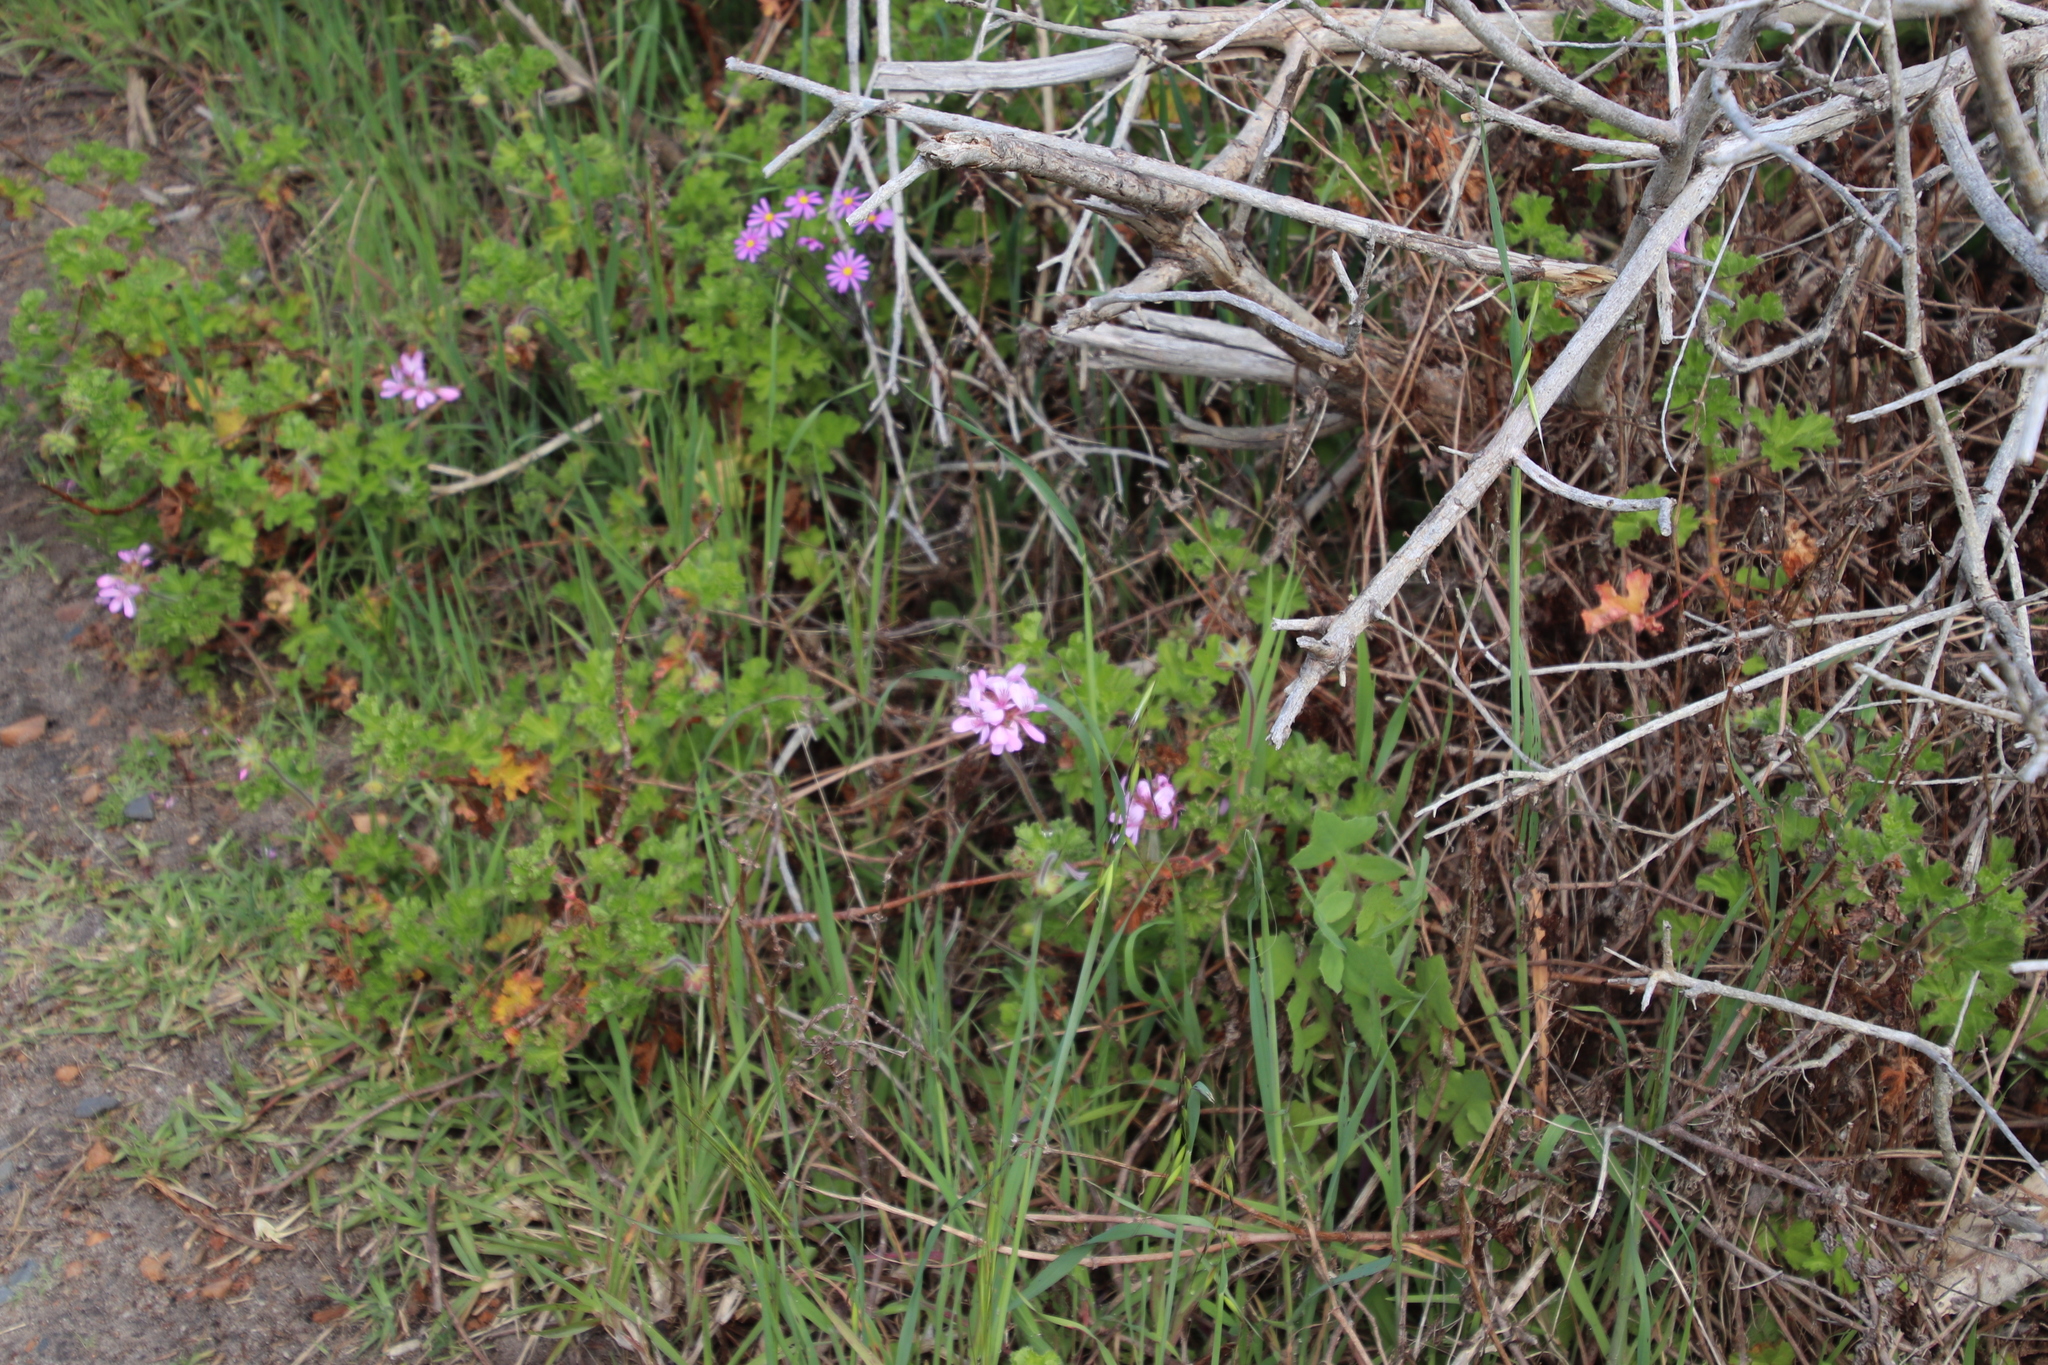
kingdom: Plantae
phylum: Tracheophyta
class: Magnoliopsida
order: Geraniales
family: Geraniaceae
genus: Pelargonium
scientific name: Pelargonium capitatum
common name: Rose scented geranium
